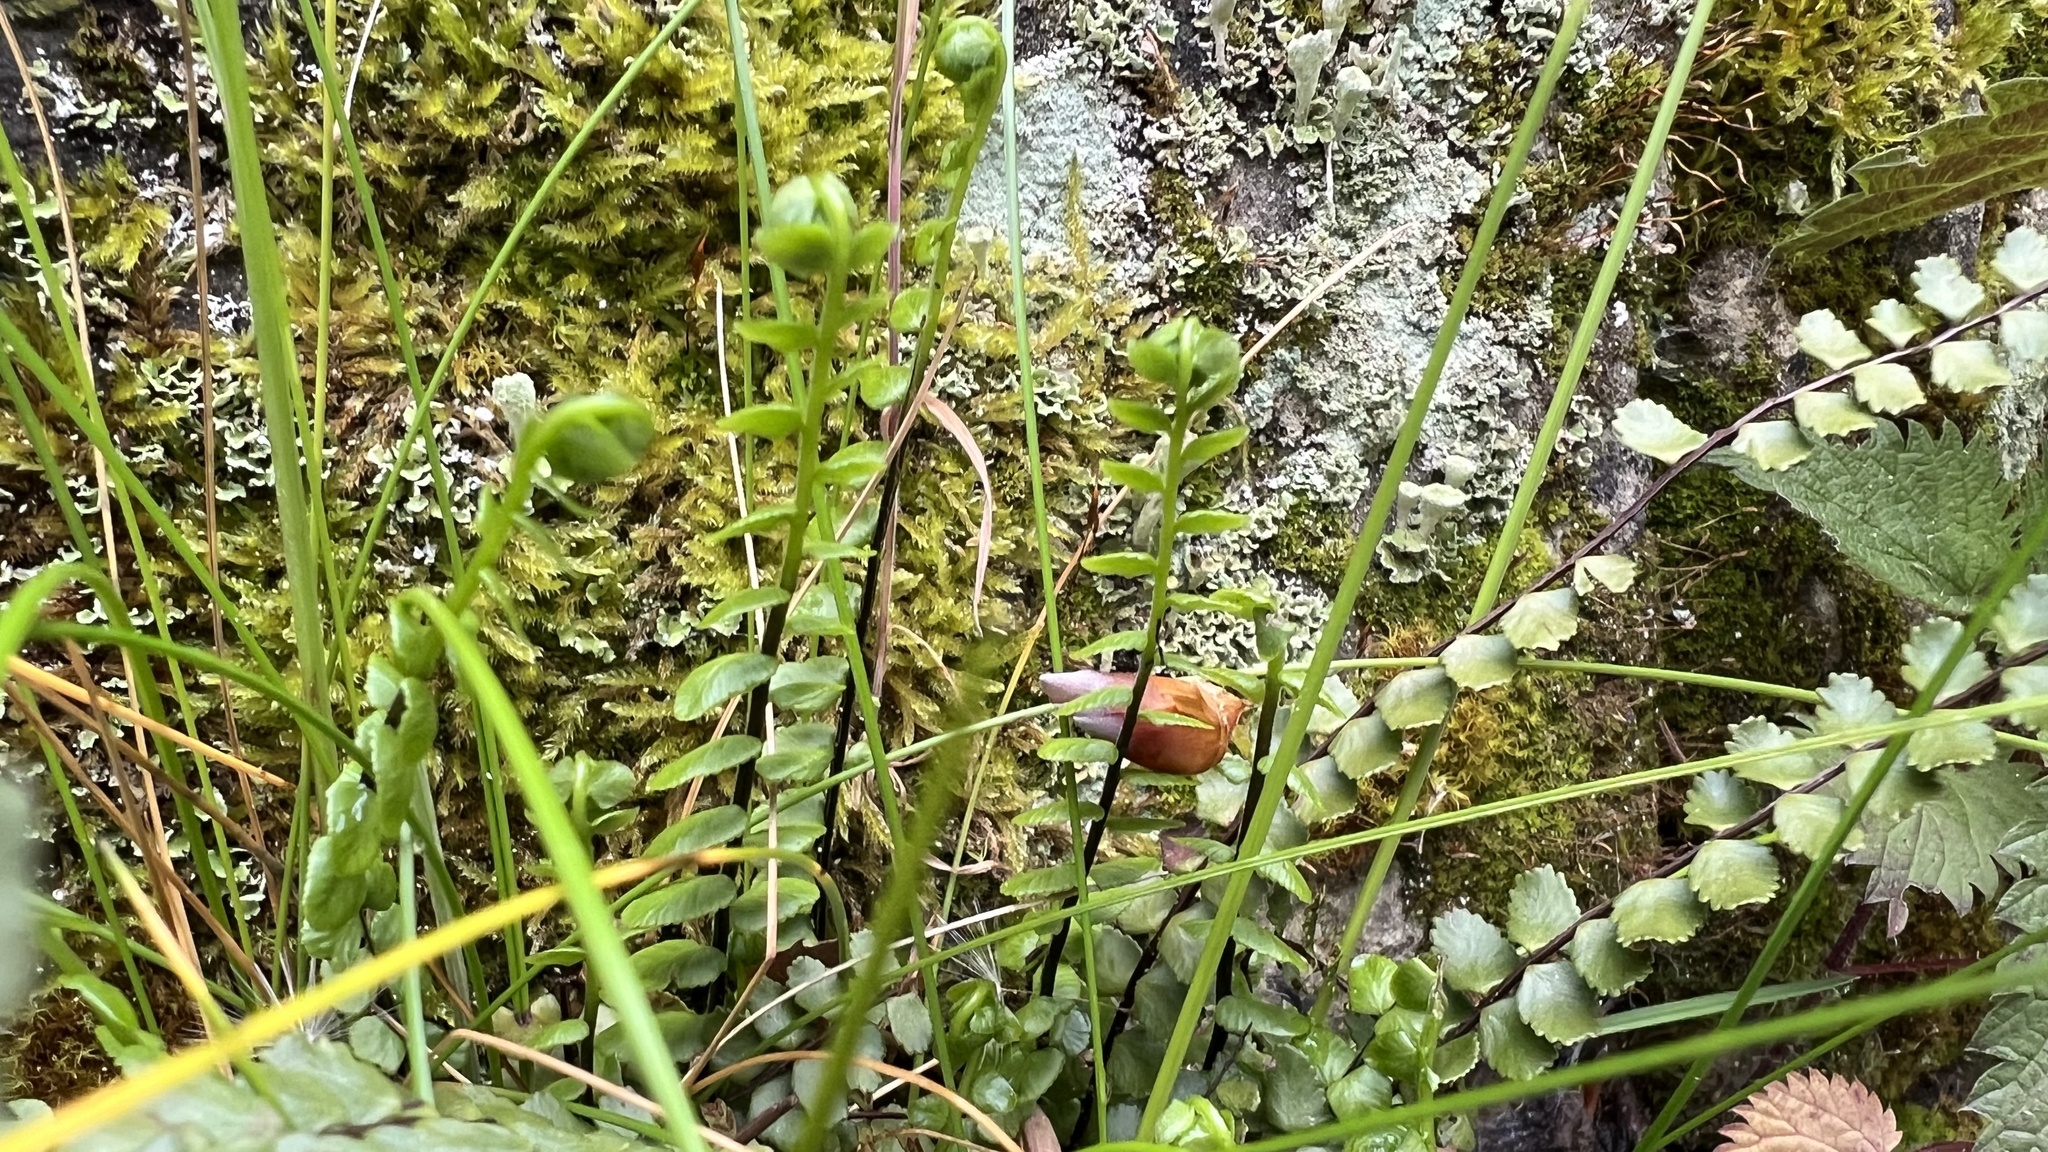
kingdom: Plantae
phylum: Tracheophyta
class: Polypodiopsida
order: Polypodiales
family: Aspleniaceae
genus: Asplenium
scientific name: Asplenium trichomanes
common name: Maidenhair spleenwort
